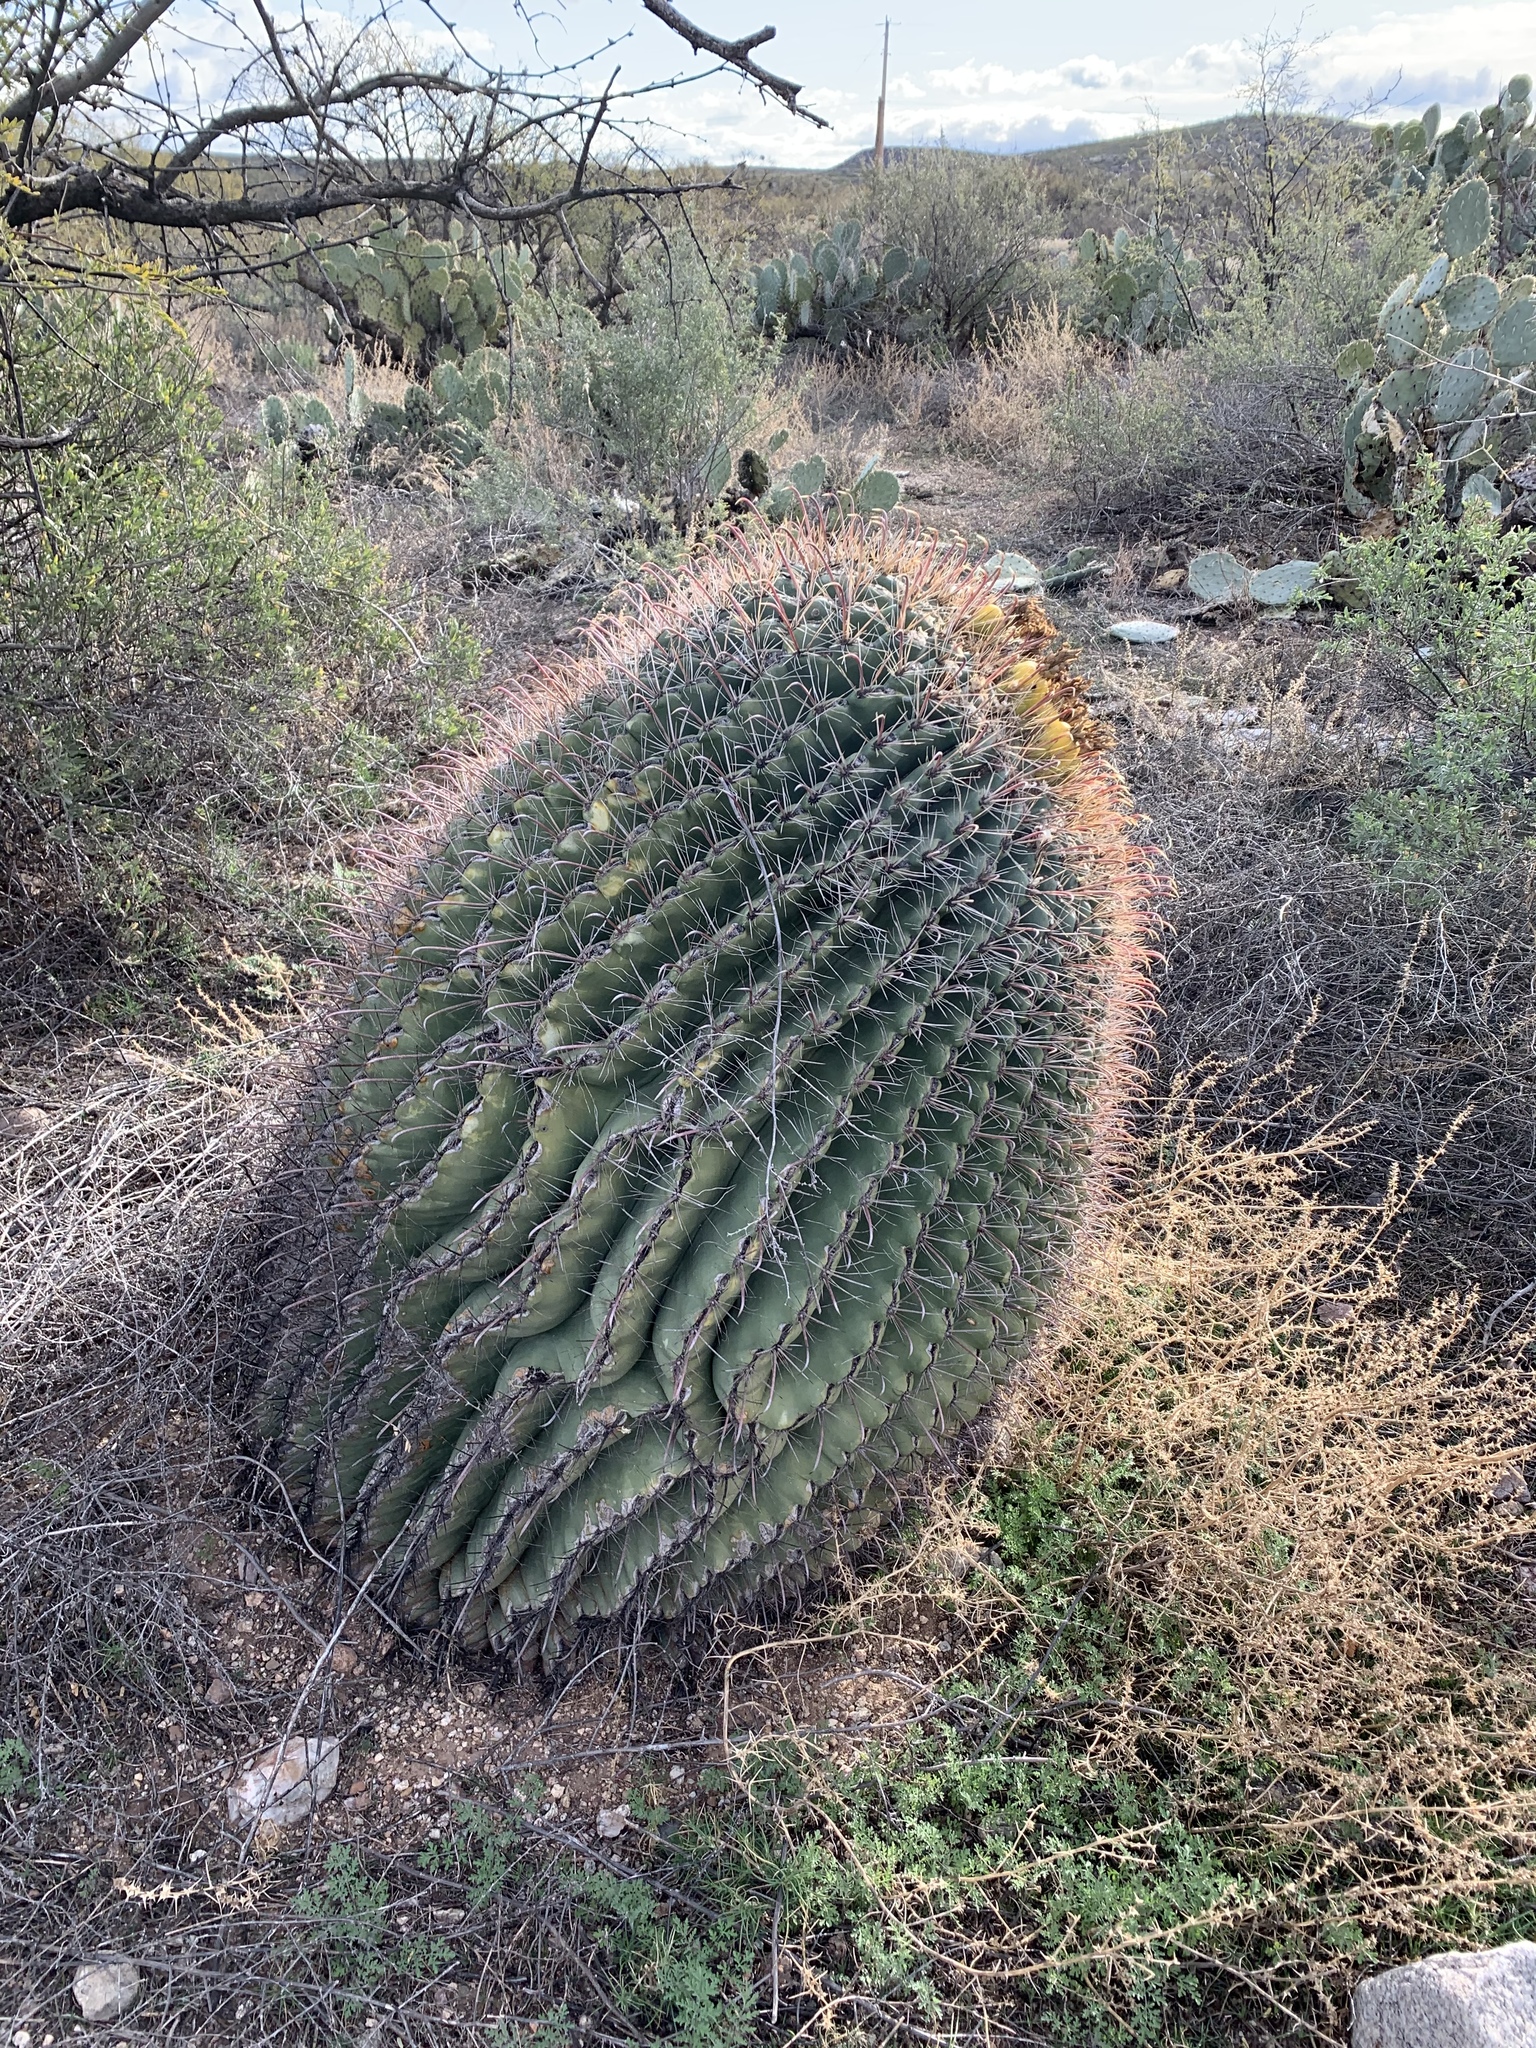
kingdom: Plantae
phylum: Tracheophyta
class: Magnoliopsida
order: Caryophyllales
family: Cactaceae
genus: Ferocactus
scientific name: Ferocactus wislizeni
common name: Candy barrel cactus
